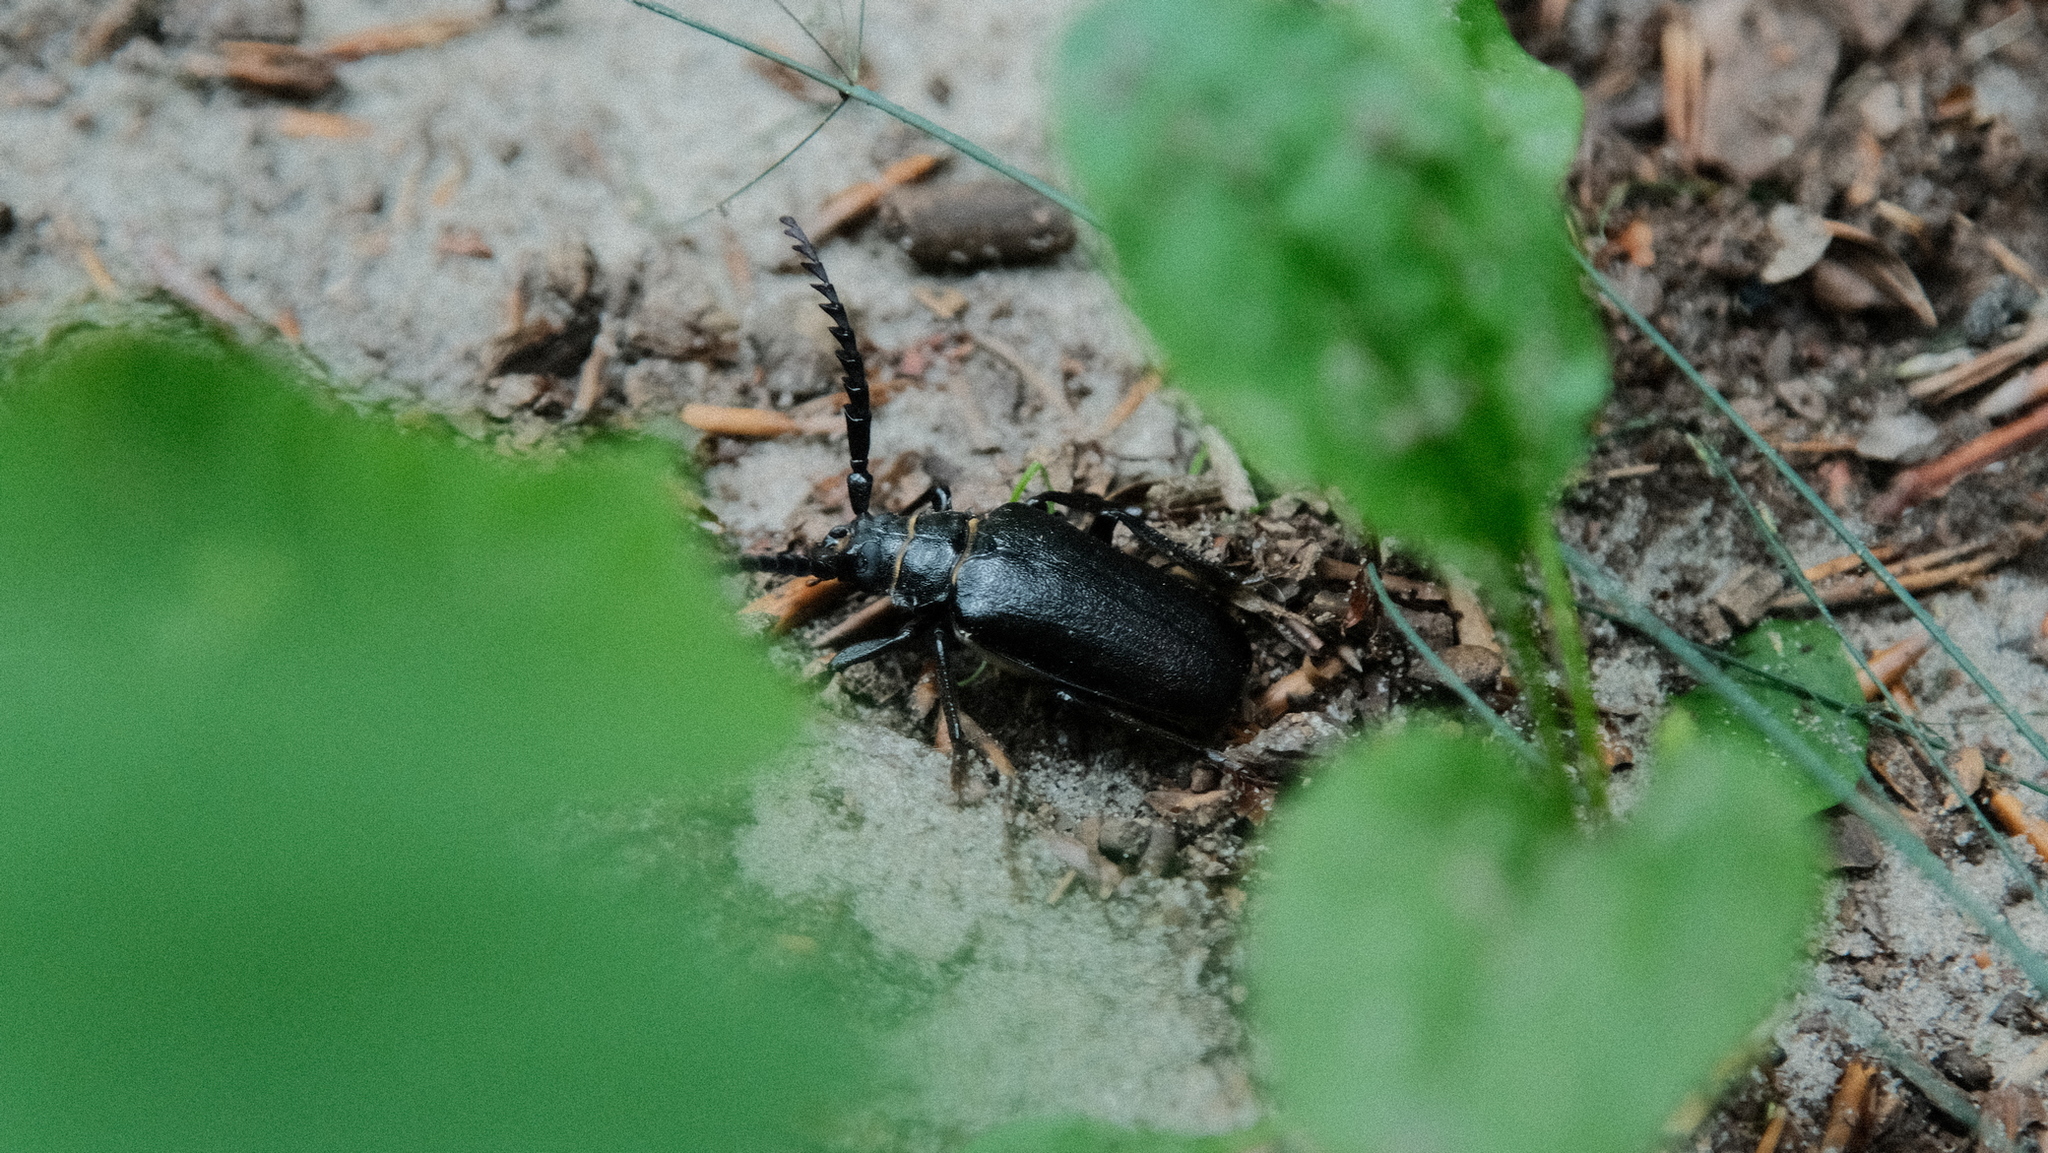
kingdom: Animalia
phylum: Arthropoda
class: Insecta
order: Coleoptera
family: Cerambycidae
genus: Prionus
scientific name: Prionus coriarius
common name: Tanner beetle
